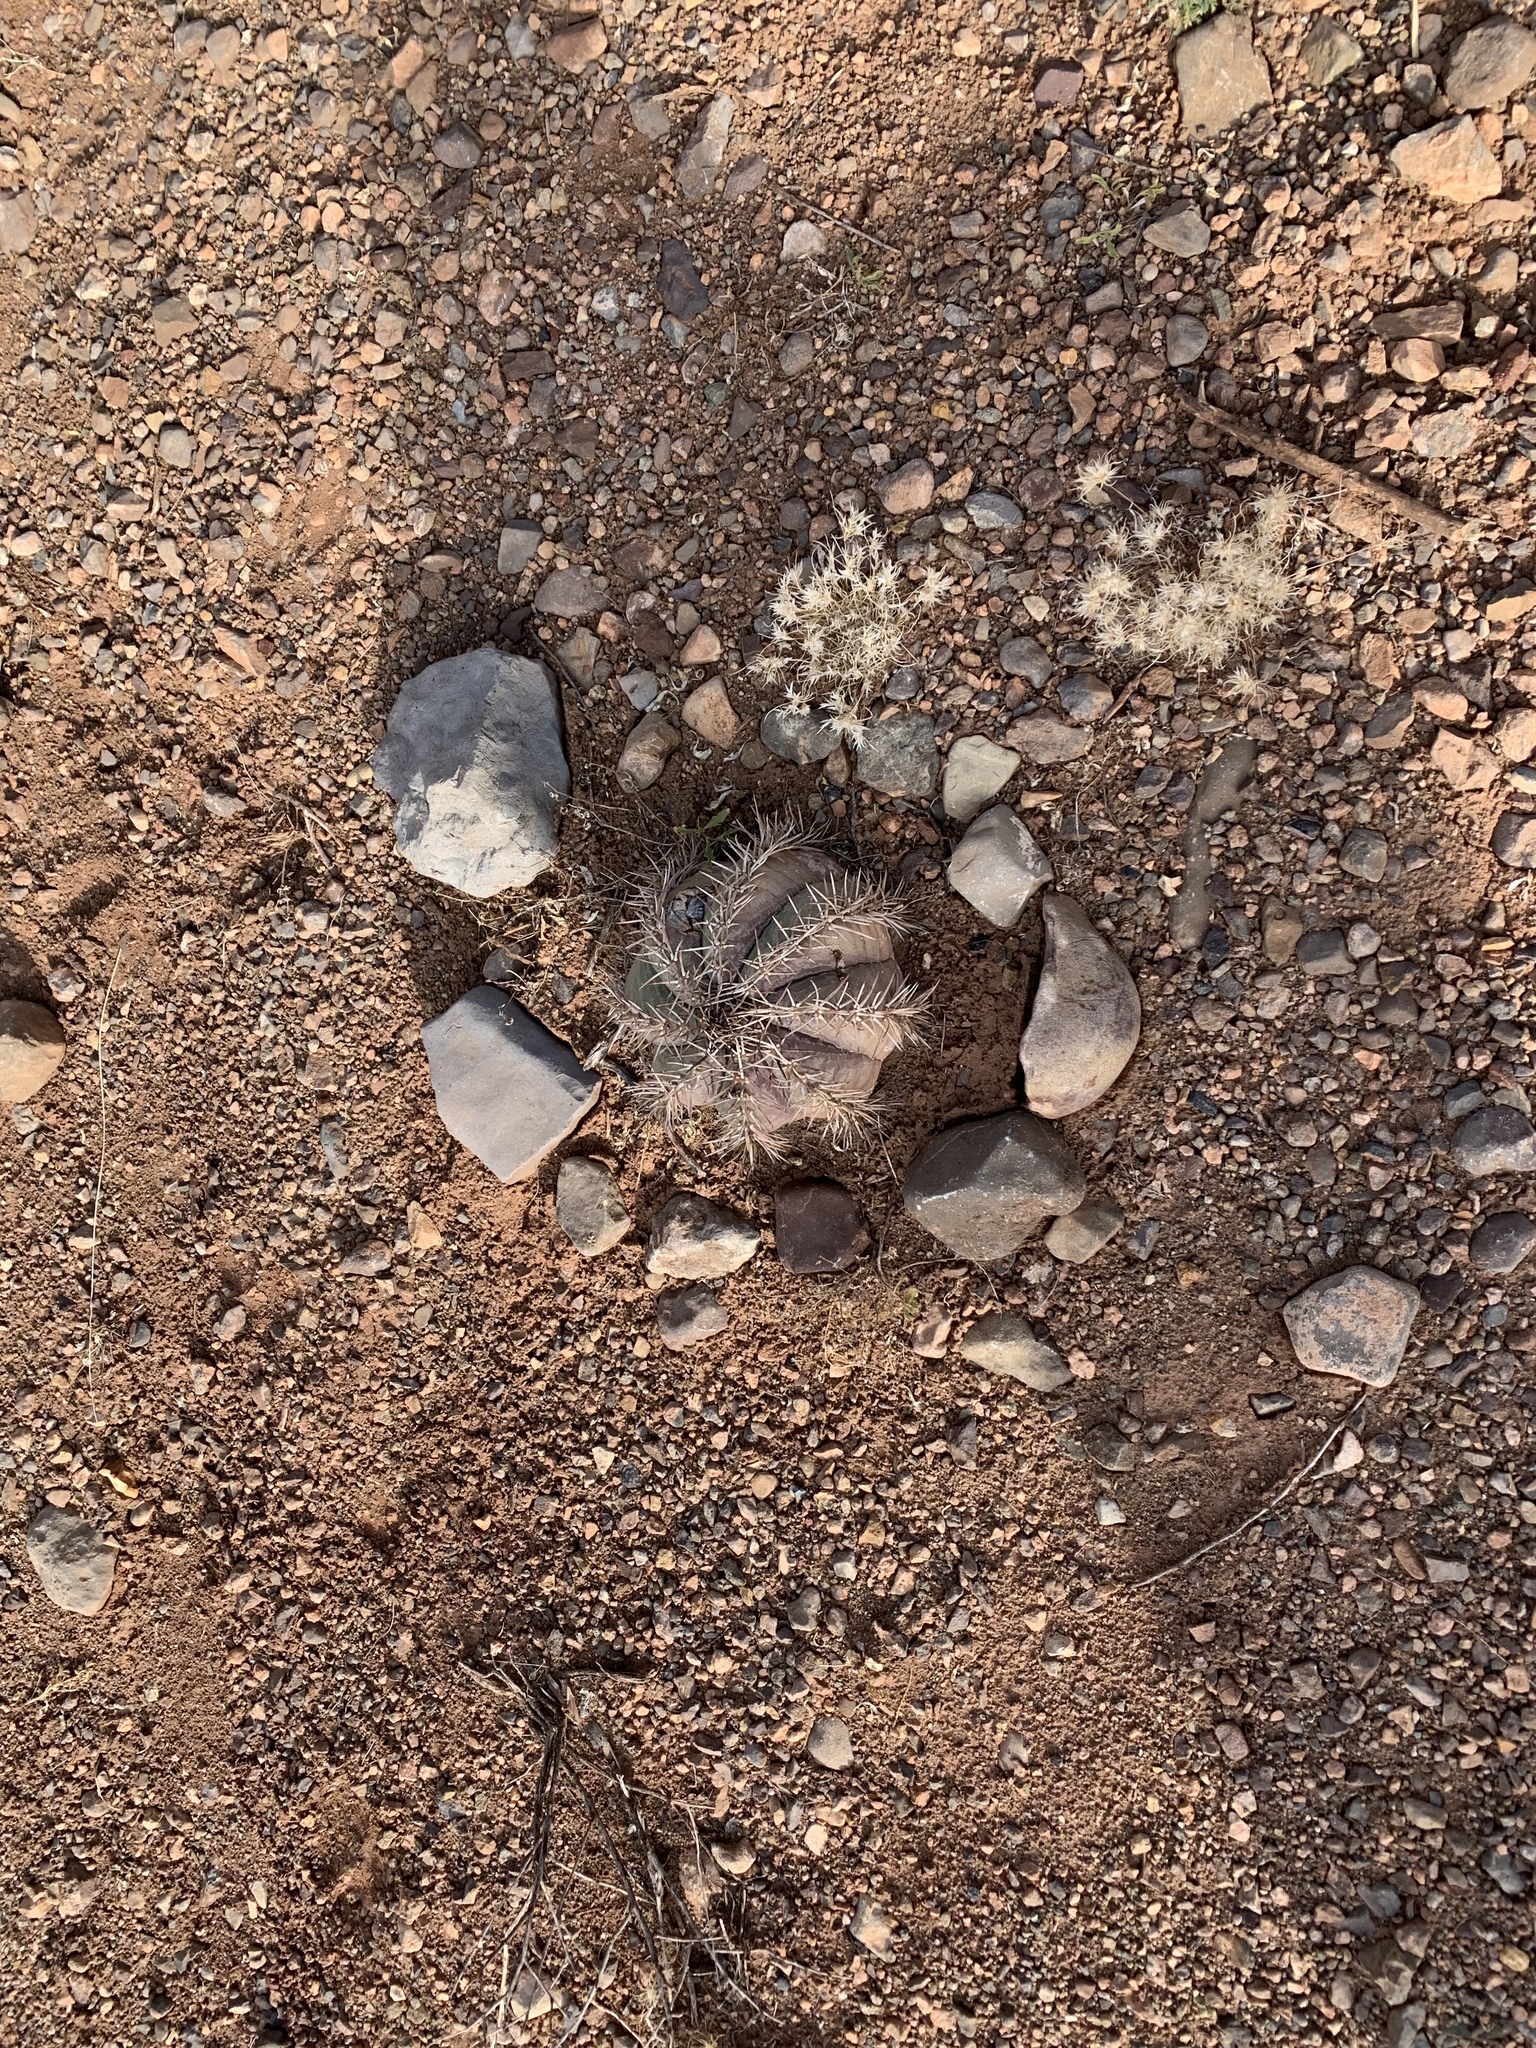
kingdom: Plantae
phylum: Tracheophyta
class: Magnoliopsida
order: Caryophyllales
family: Cactaceae
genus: Echinocactus
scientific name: Echinocactus horizonthalonius
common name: Devilshead
